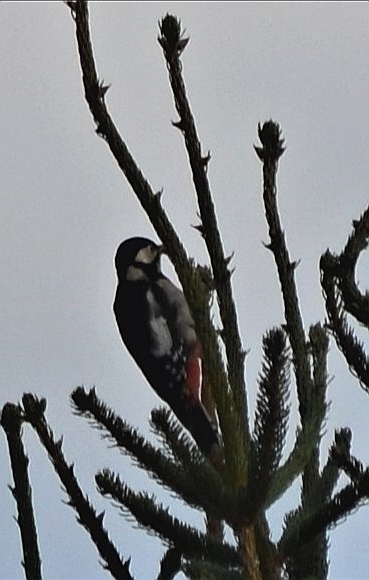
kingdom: Animalia
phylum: Chordata
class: Aves
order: Piciformes
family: Picidae
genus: Dendrocopos
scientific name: Dendrocopos major
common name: Great spotted woodpecker
